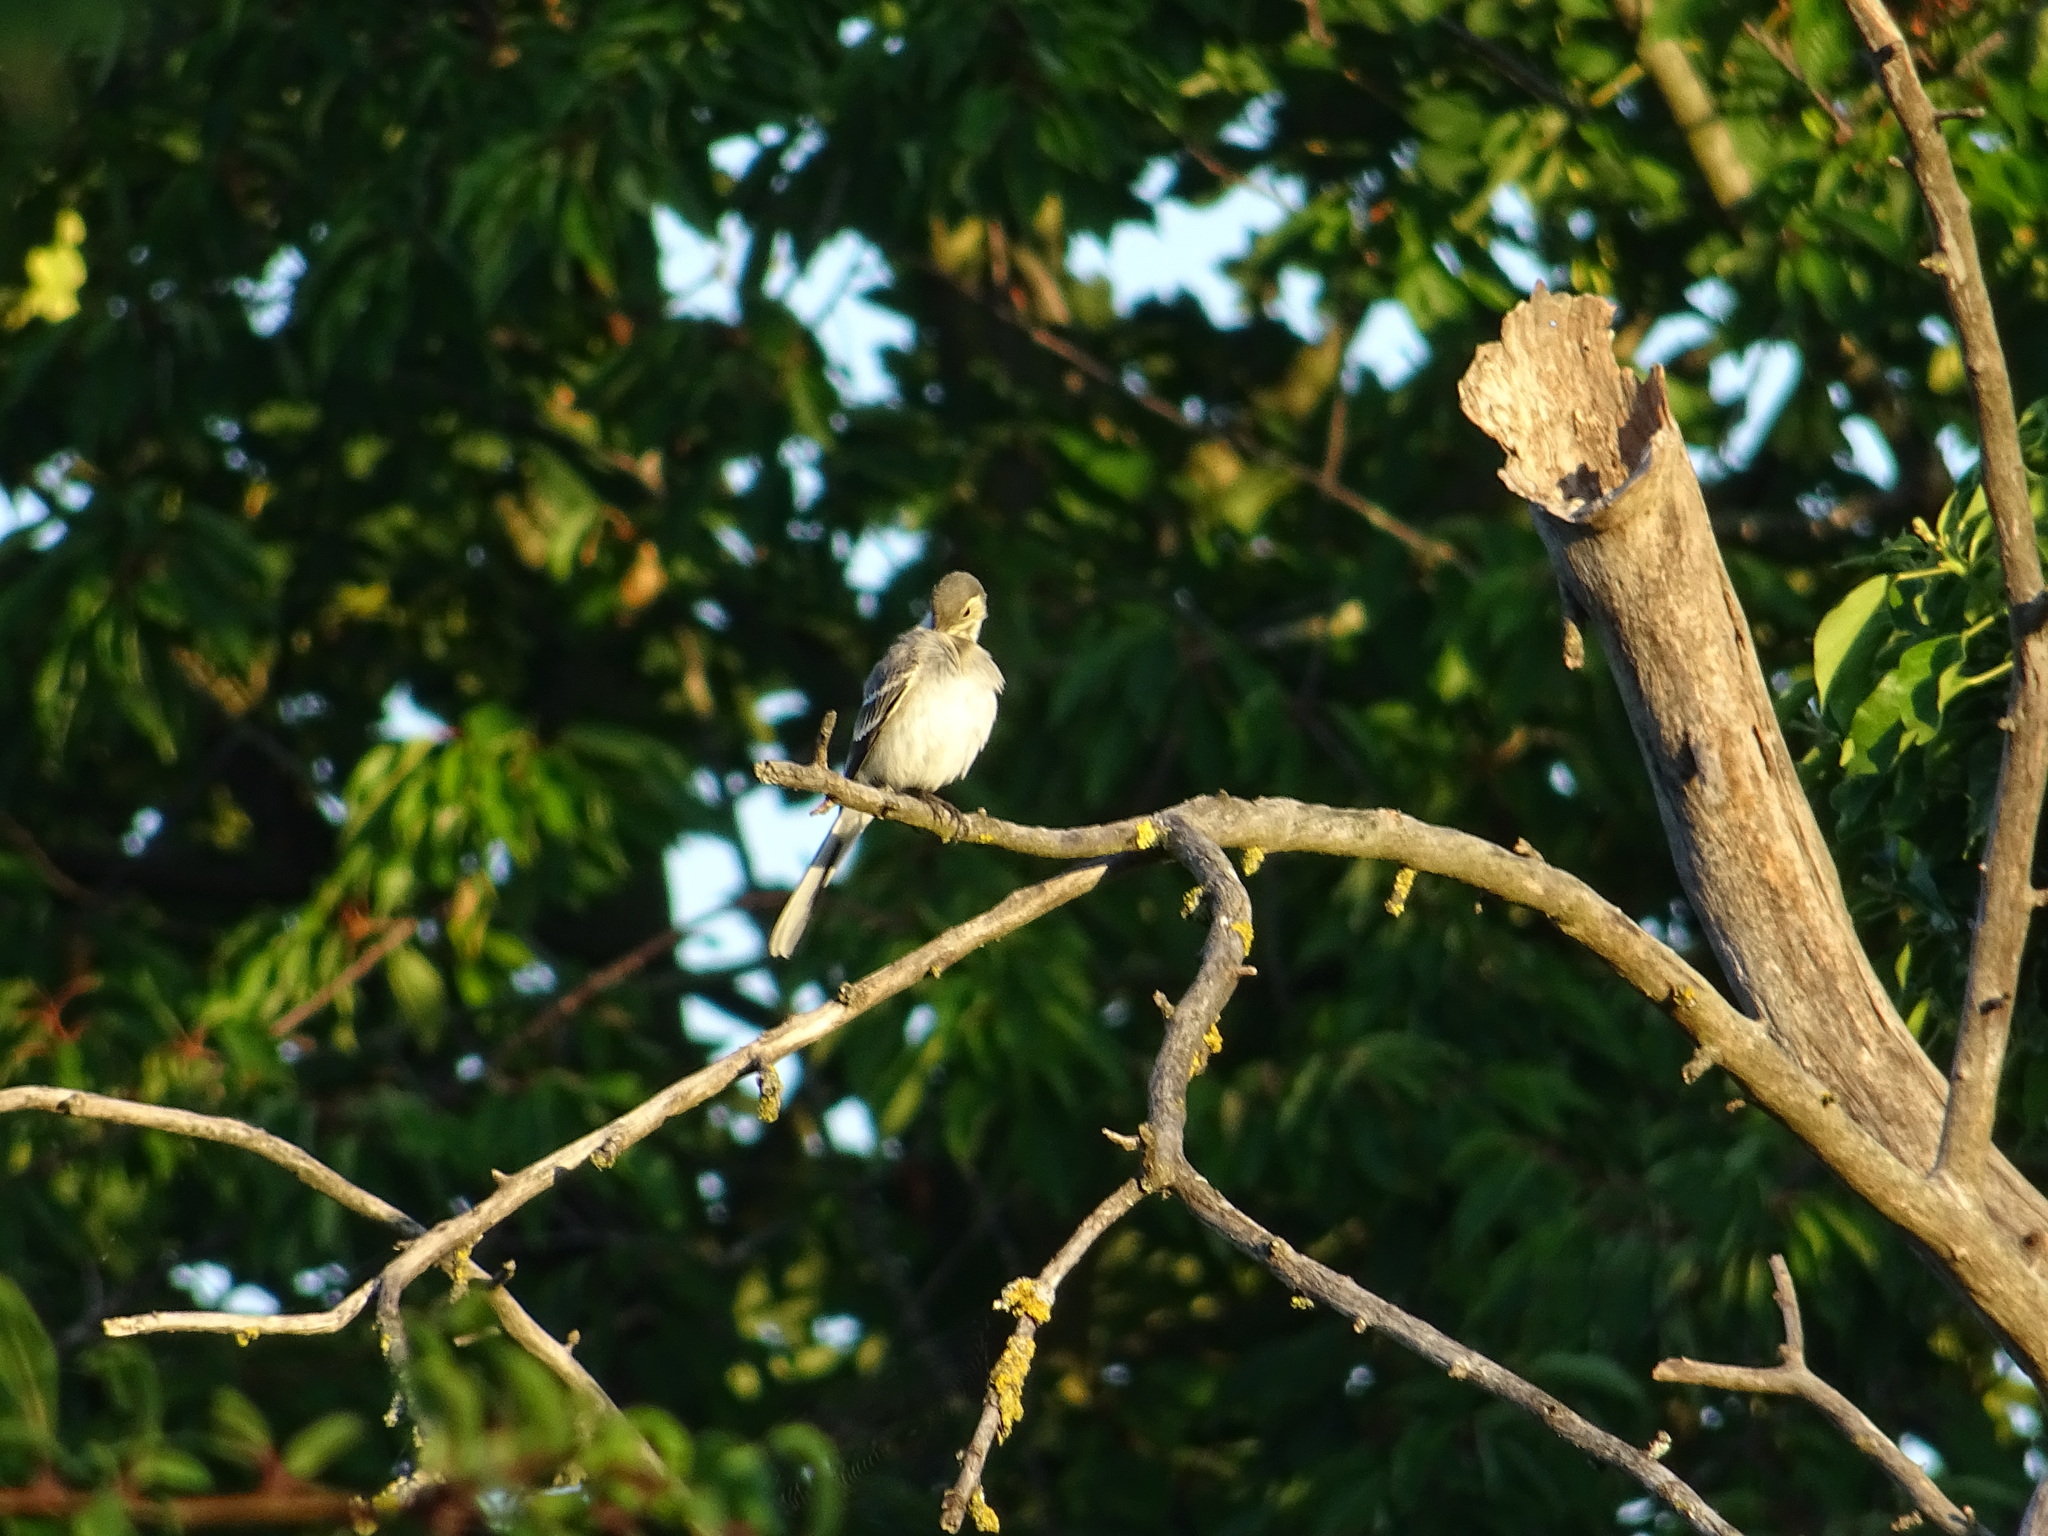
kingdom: Animalia
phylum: Chordata
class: Aves
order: Passeriformes
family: Motacillidae
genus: Motacilla
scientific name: Motacilla alba
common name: White wagtail
